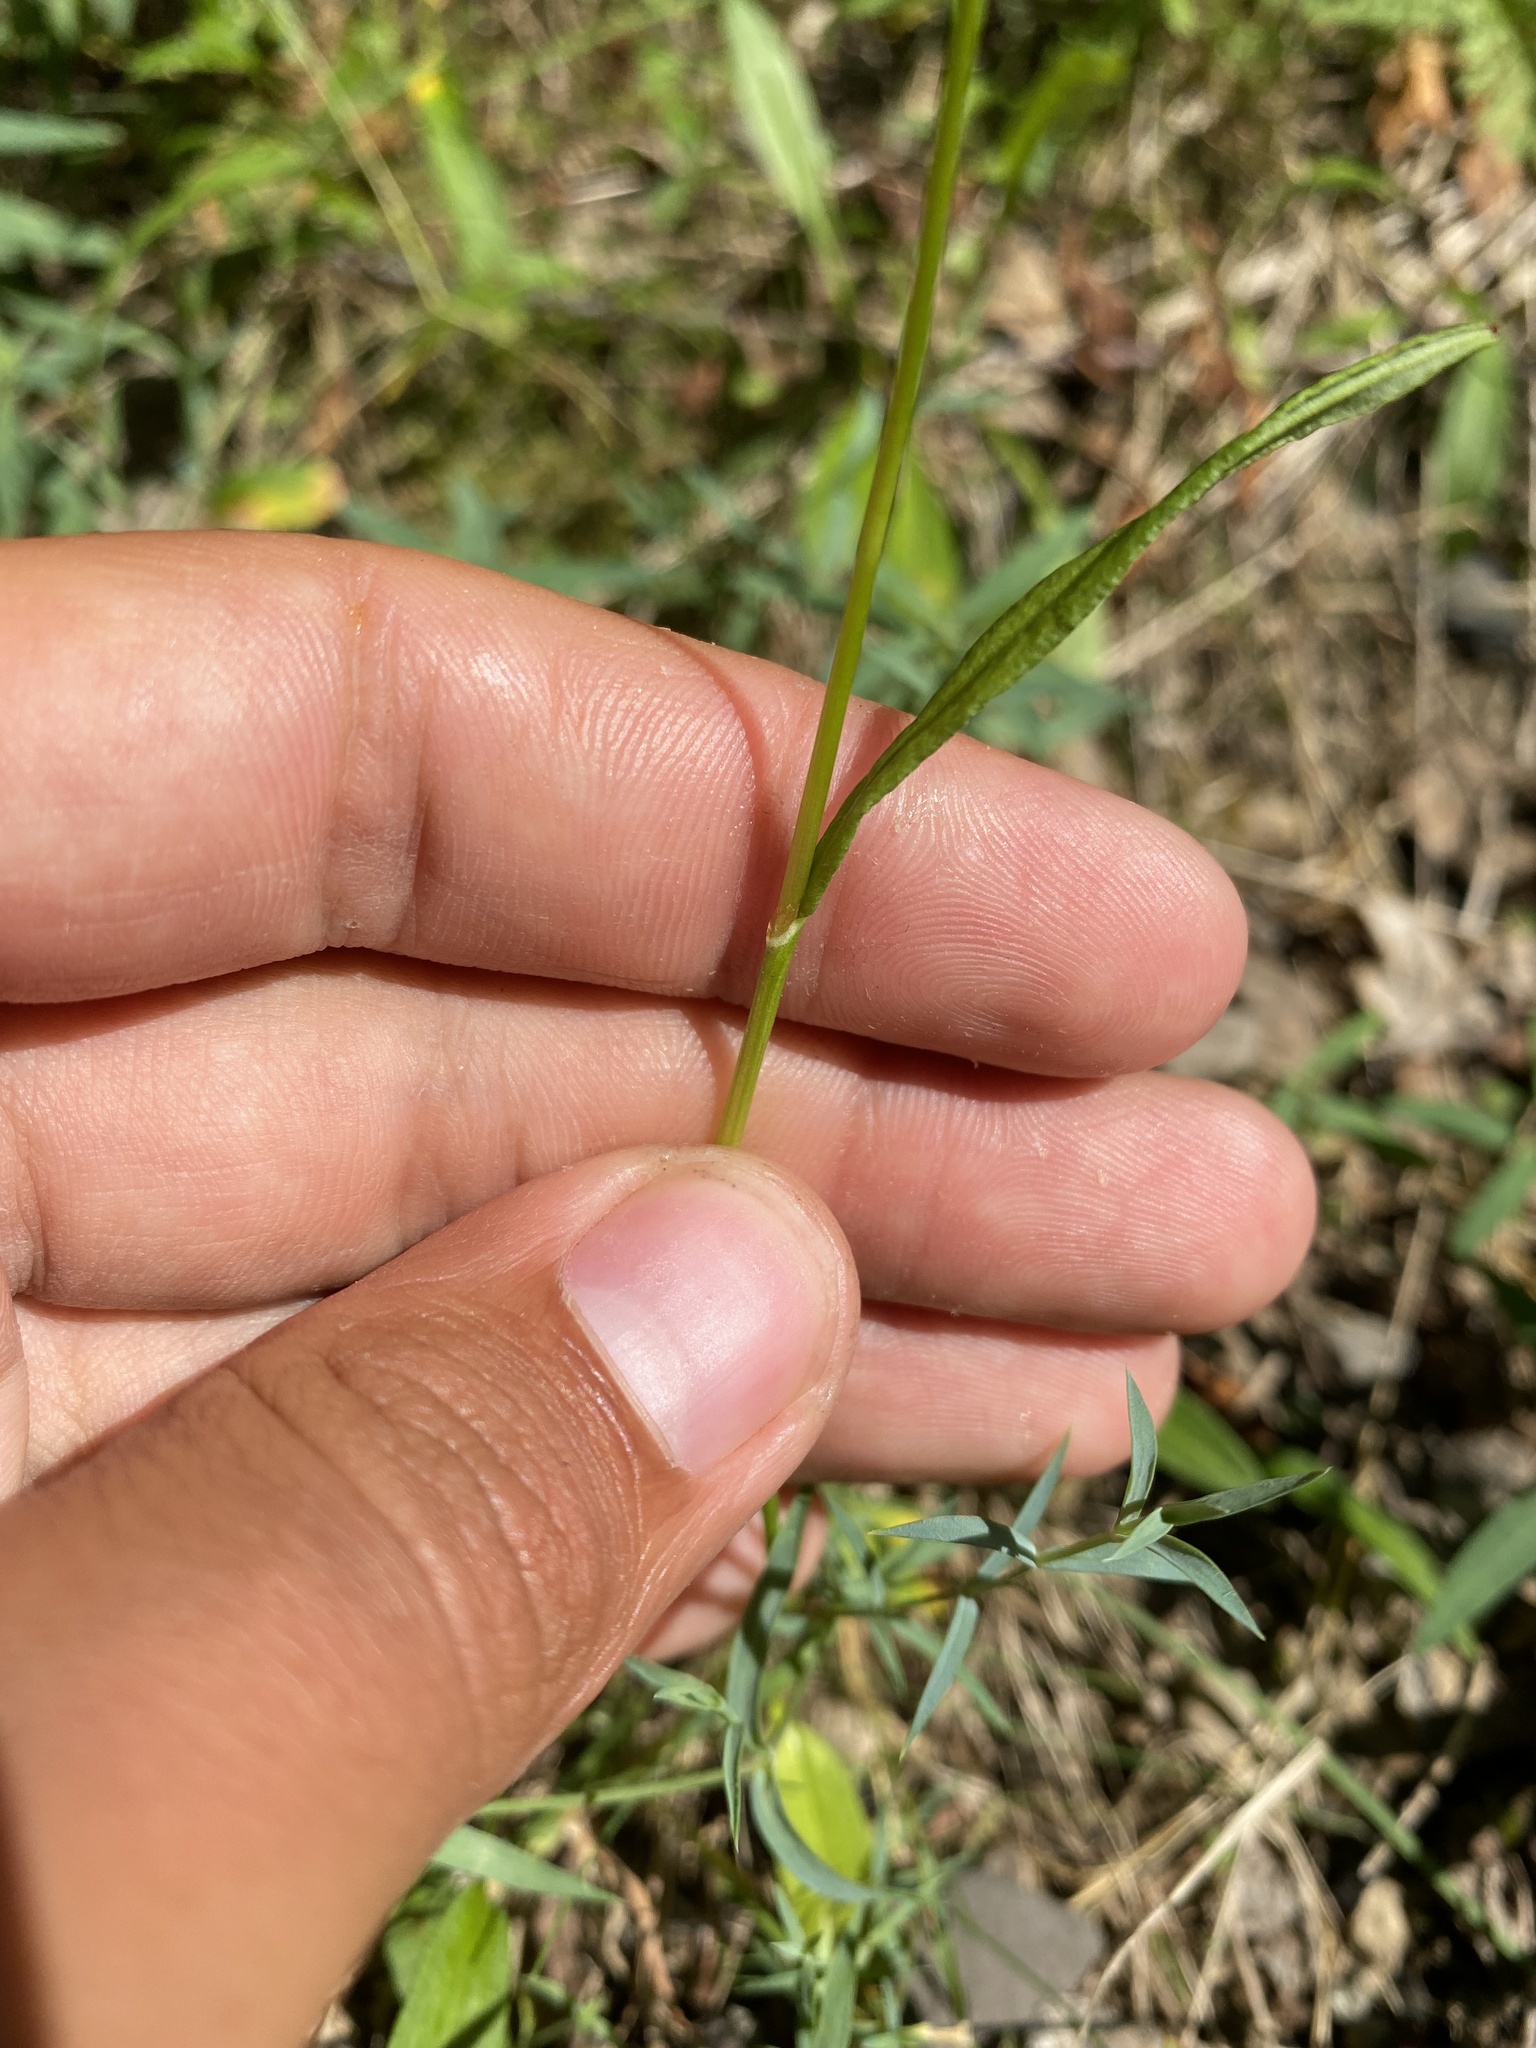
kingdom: Plantae
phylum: Tracheophyta
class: Magnoliopsida
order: Caryophyllales
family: Polygonaceae
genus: Bistorta
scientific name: Bistorta vivipara
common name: Alpine bistort
